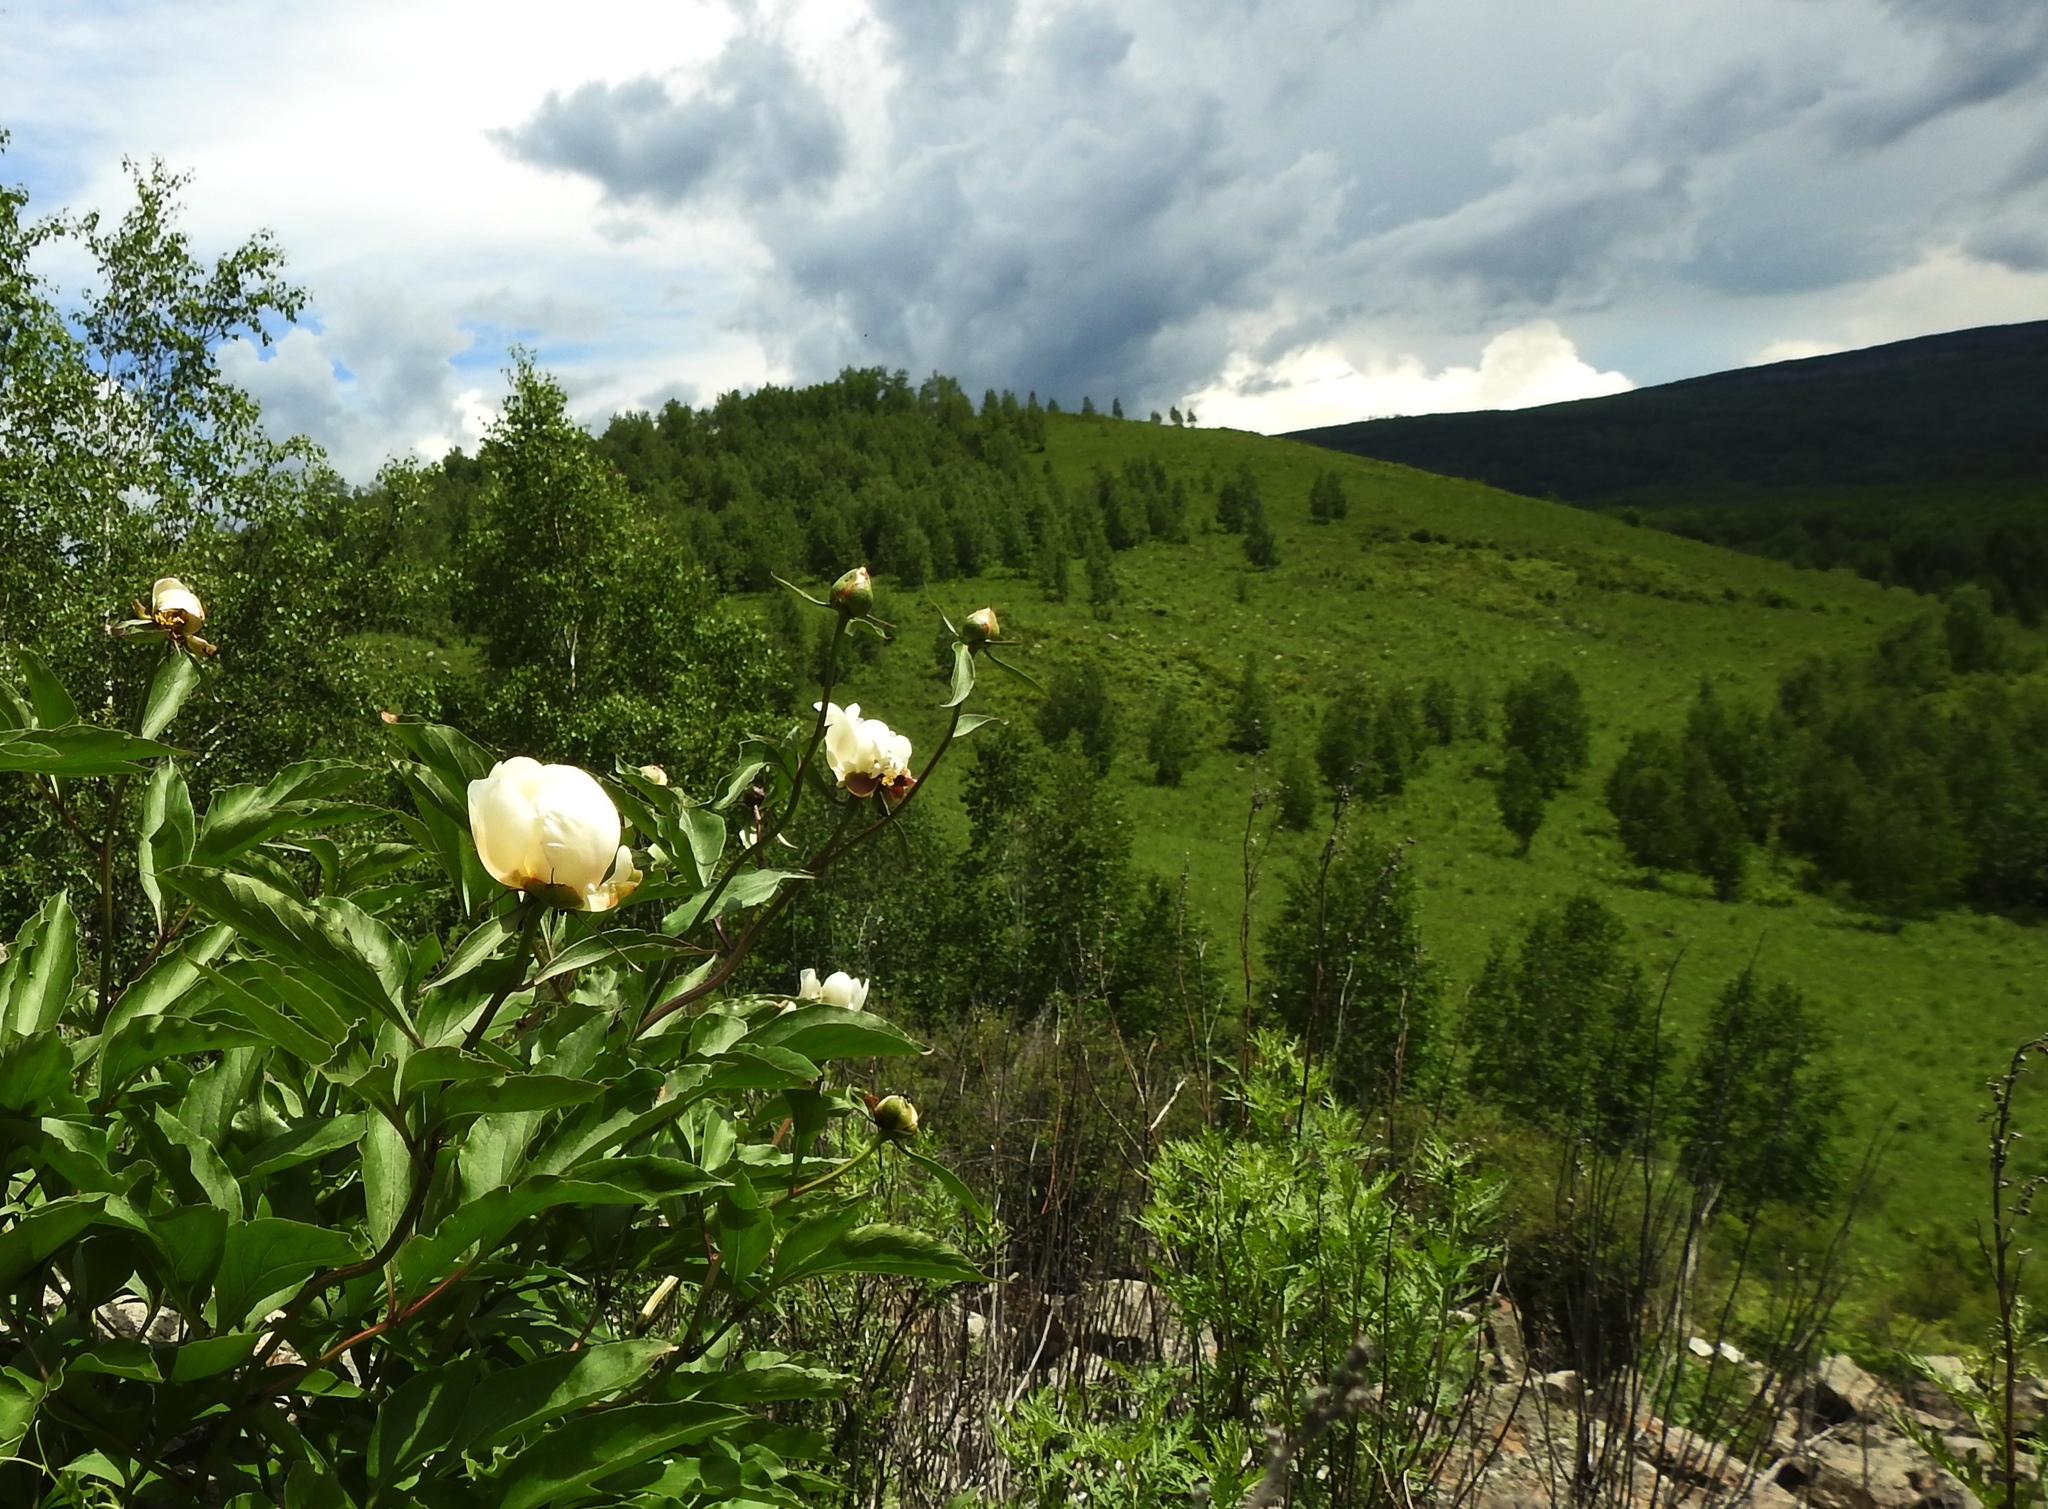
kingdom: Plantae
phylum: Tracheophyta
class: Magnoliopsida
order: Saxifragales
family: Paeoniaceae
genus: Paeonia
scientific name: Paeonia lactiflora
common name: Chinese peony
